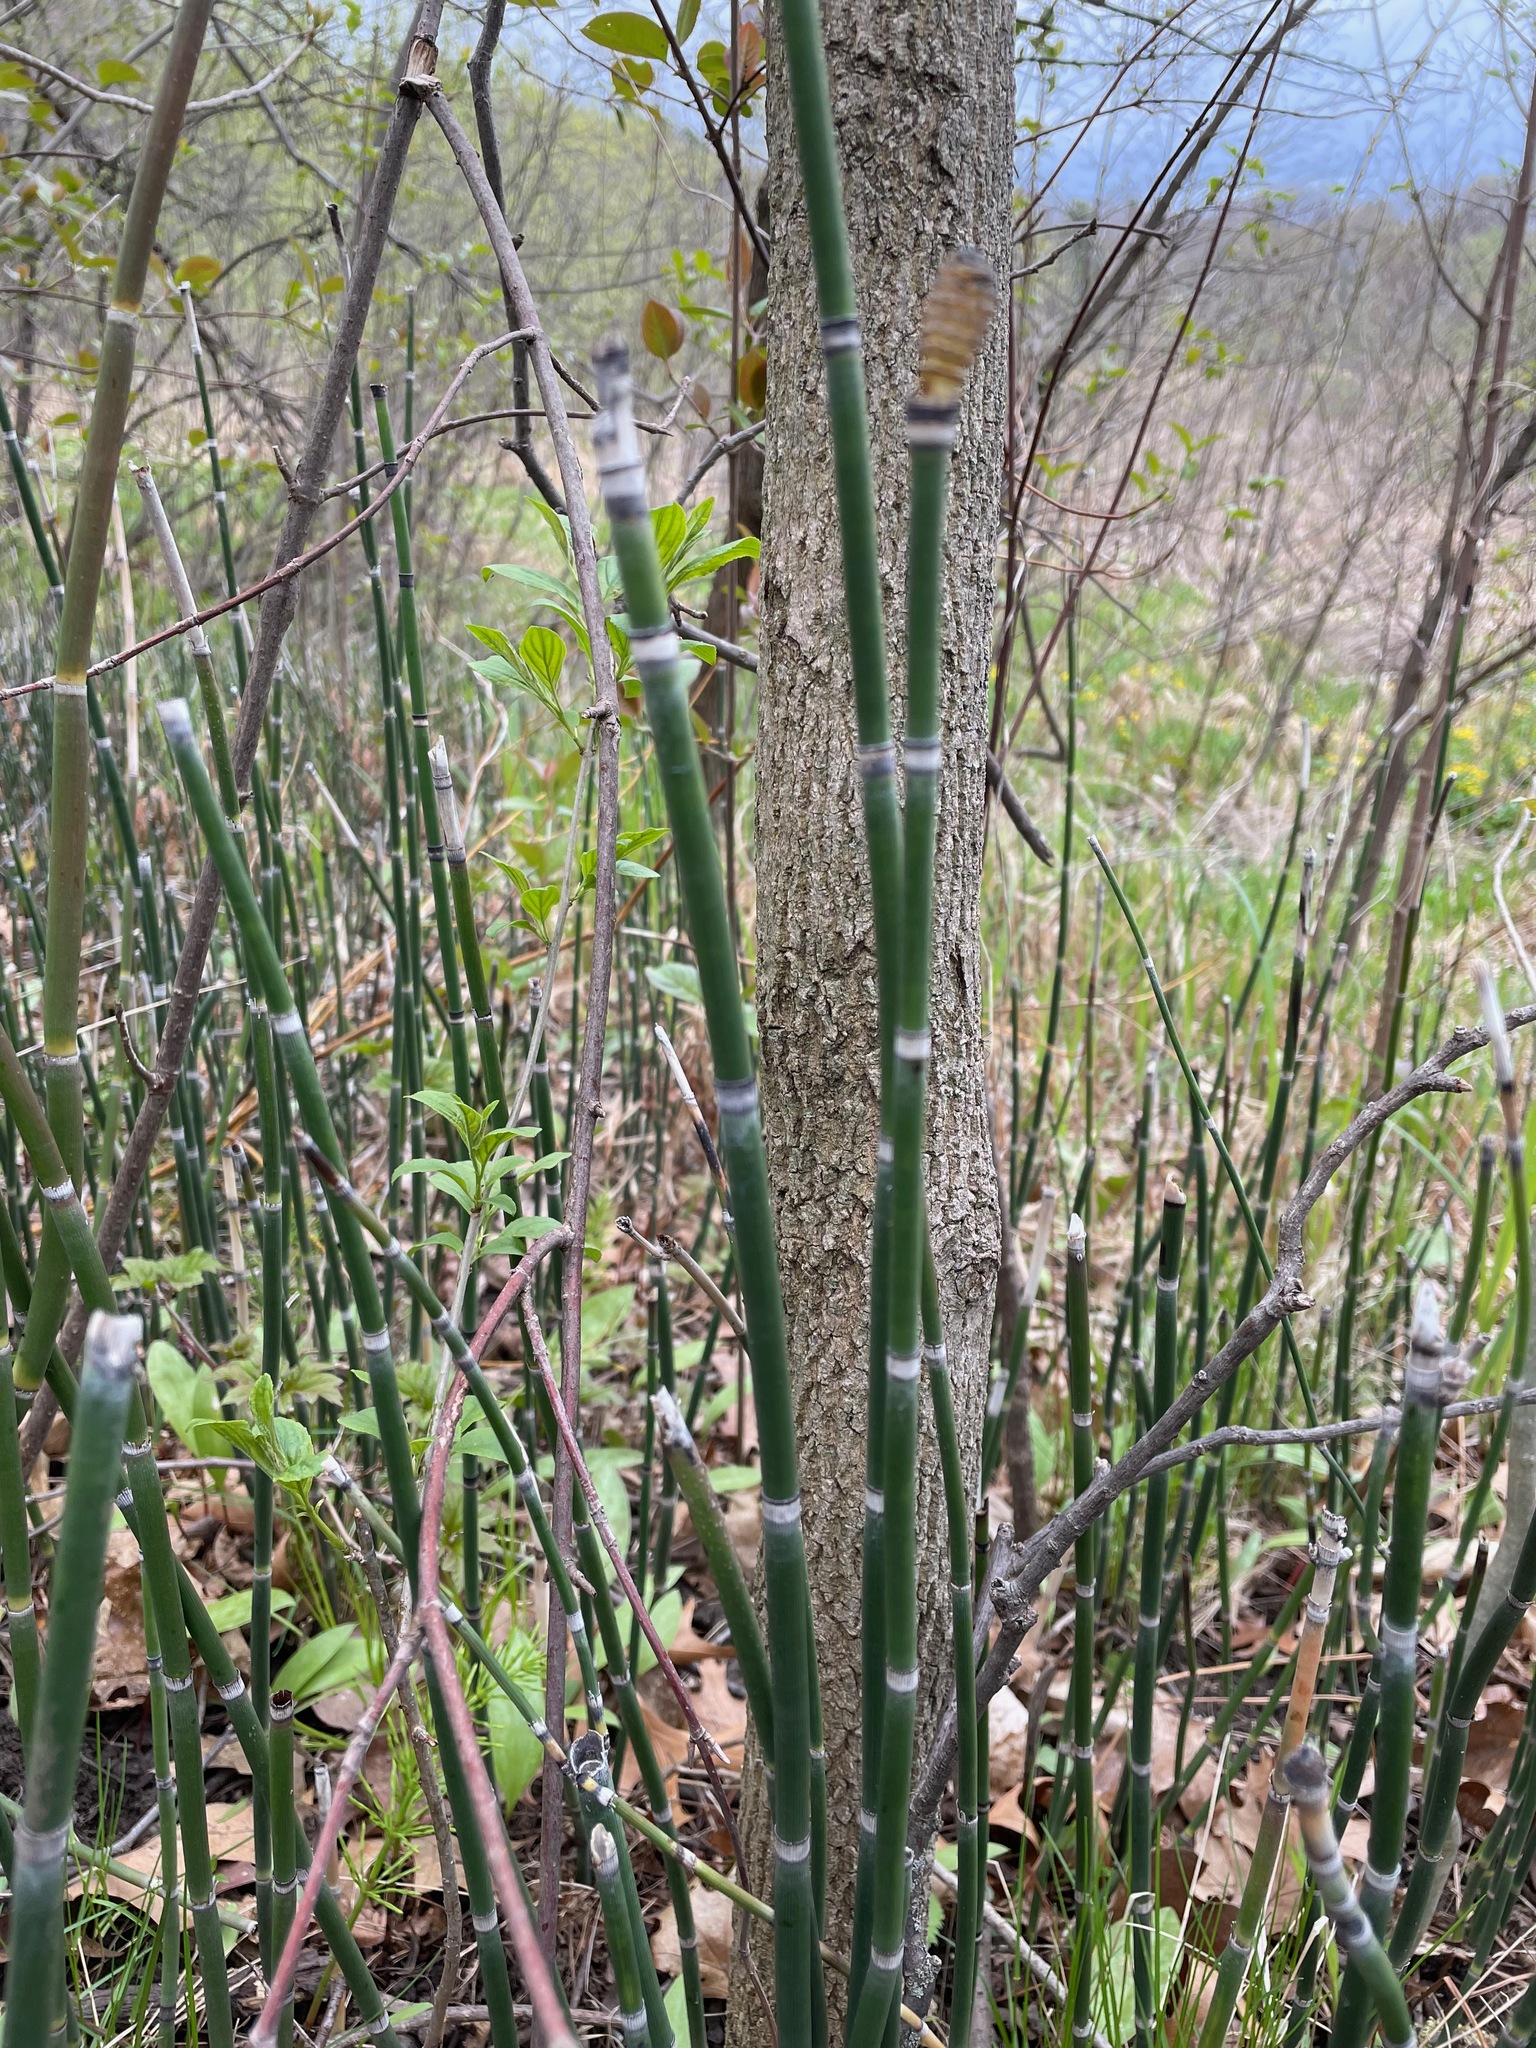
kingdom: Plantae
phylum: Tracheophyta
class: Polypodiopsida
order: Equisetales
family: Equisetaceae
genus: Equisetum
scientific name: Equisetum hyemale
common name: Rough horsetail
